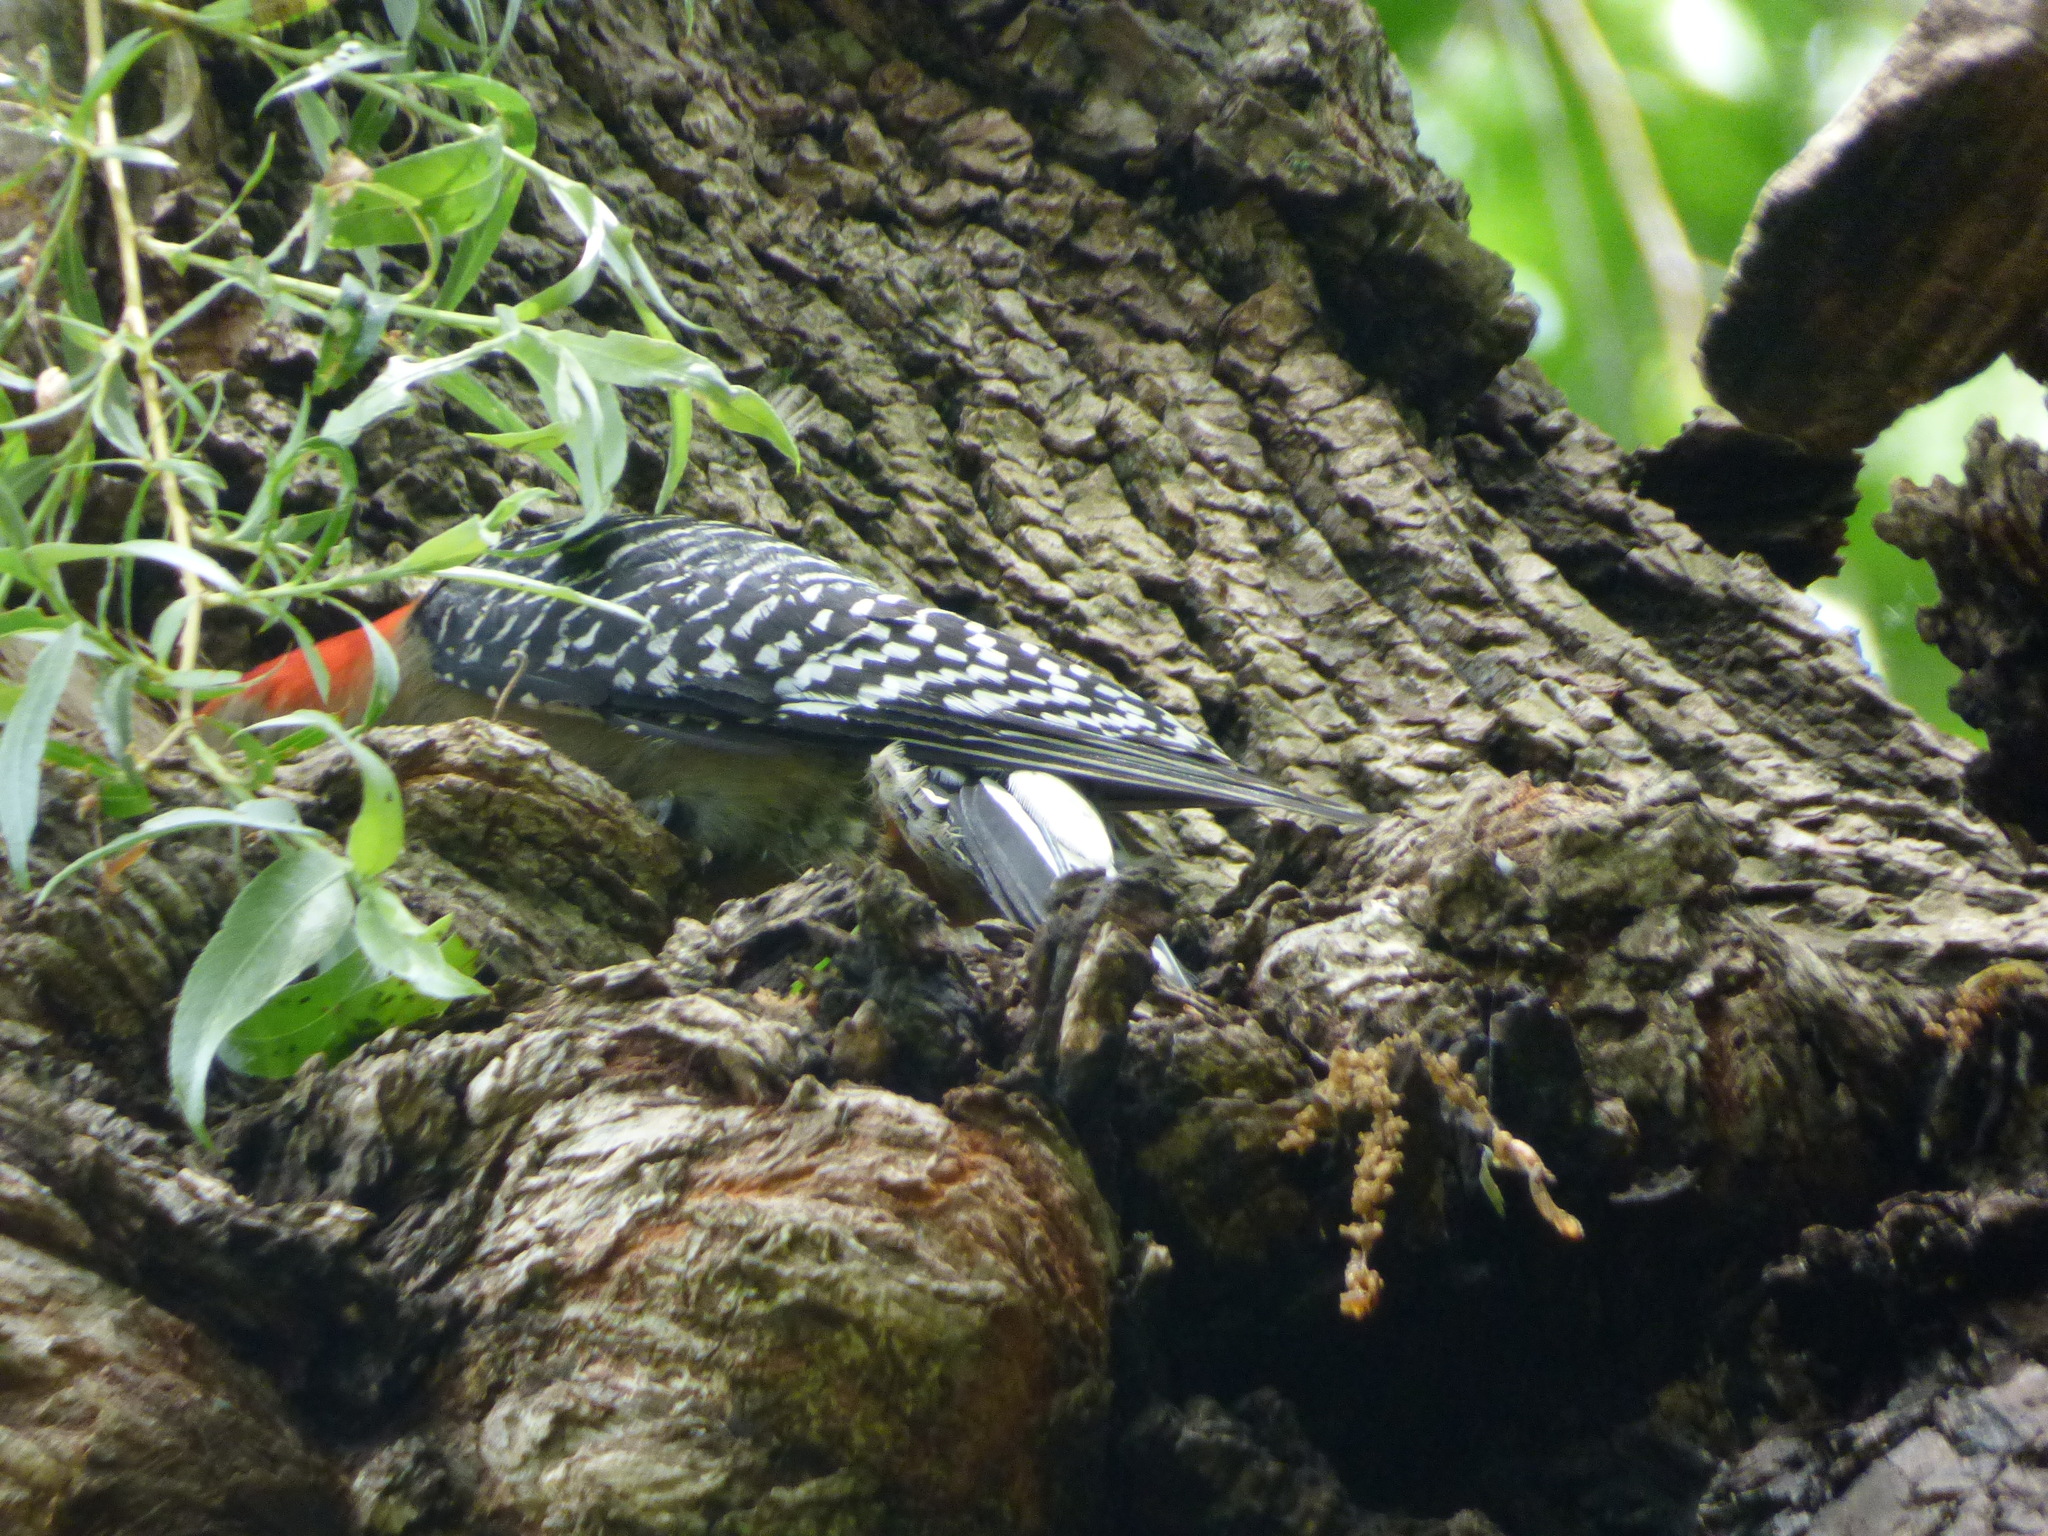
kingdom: Animalia
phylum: Chordata
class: Aves
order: Piciformes
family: Picidae
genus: Melanerpes
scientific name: Melanerpes carolinus
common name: Red-bellied woodpecker
